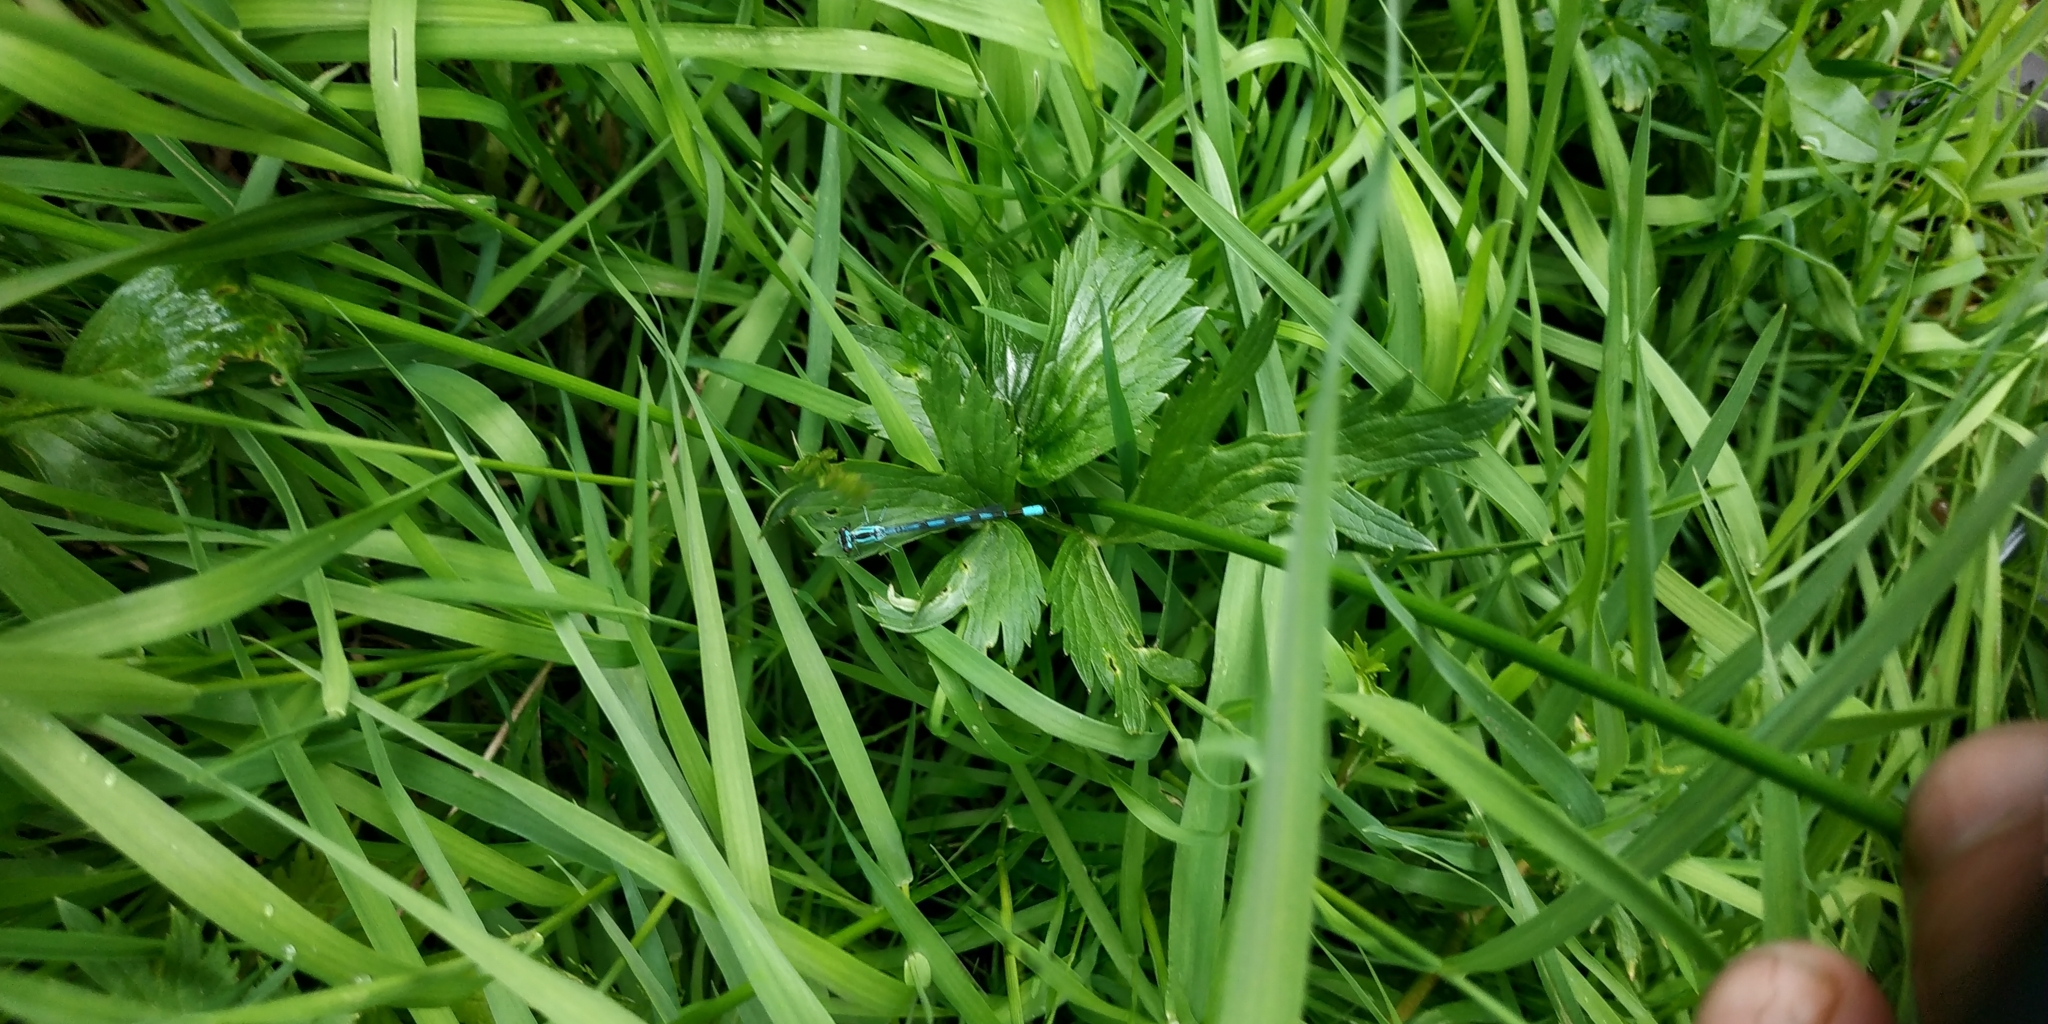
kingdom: Animalia
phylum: Arthropoda
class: Insecta
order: Odonata
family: Coenagrionidae
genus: Coenagrion
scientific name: Coenagrion hastulatum
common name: Spearhead bluet
